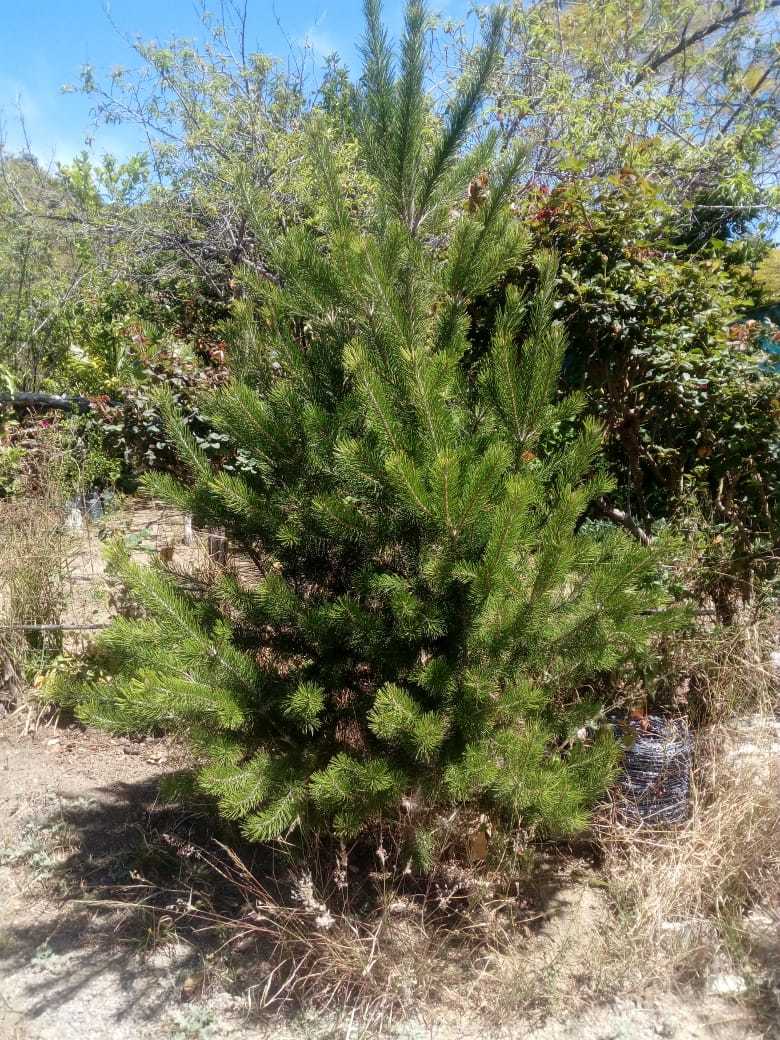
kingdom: Plantae
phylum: Tracheophyta
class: Pinopsida
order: Pinales
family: Pinaceae
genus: Pinus
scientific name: Pinus cembroides
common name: Mexican nut pine
